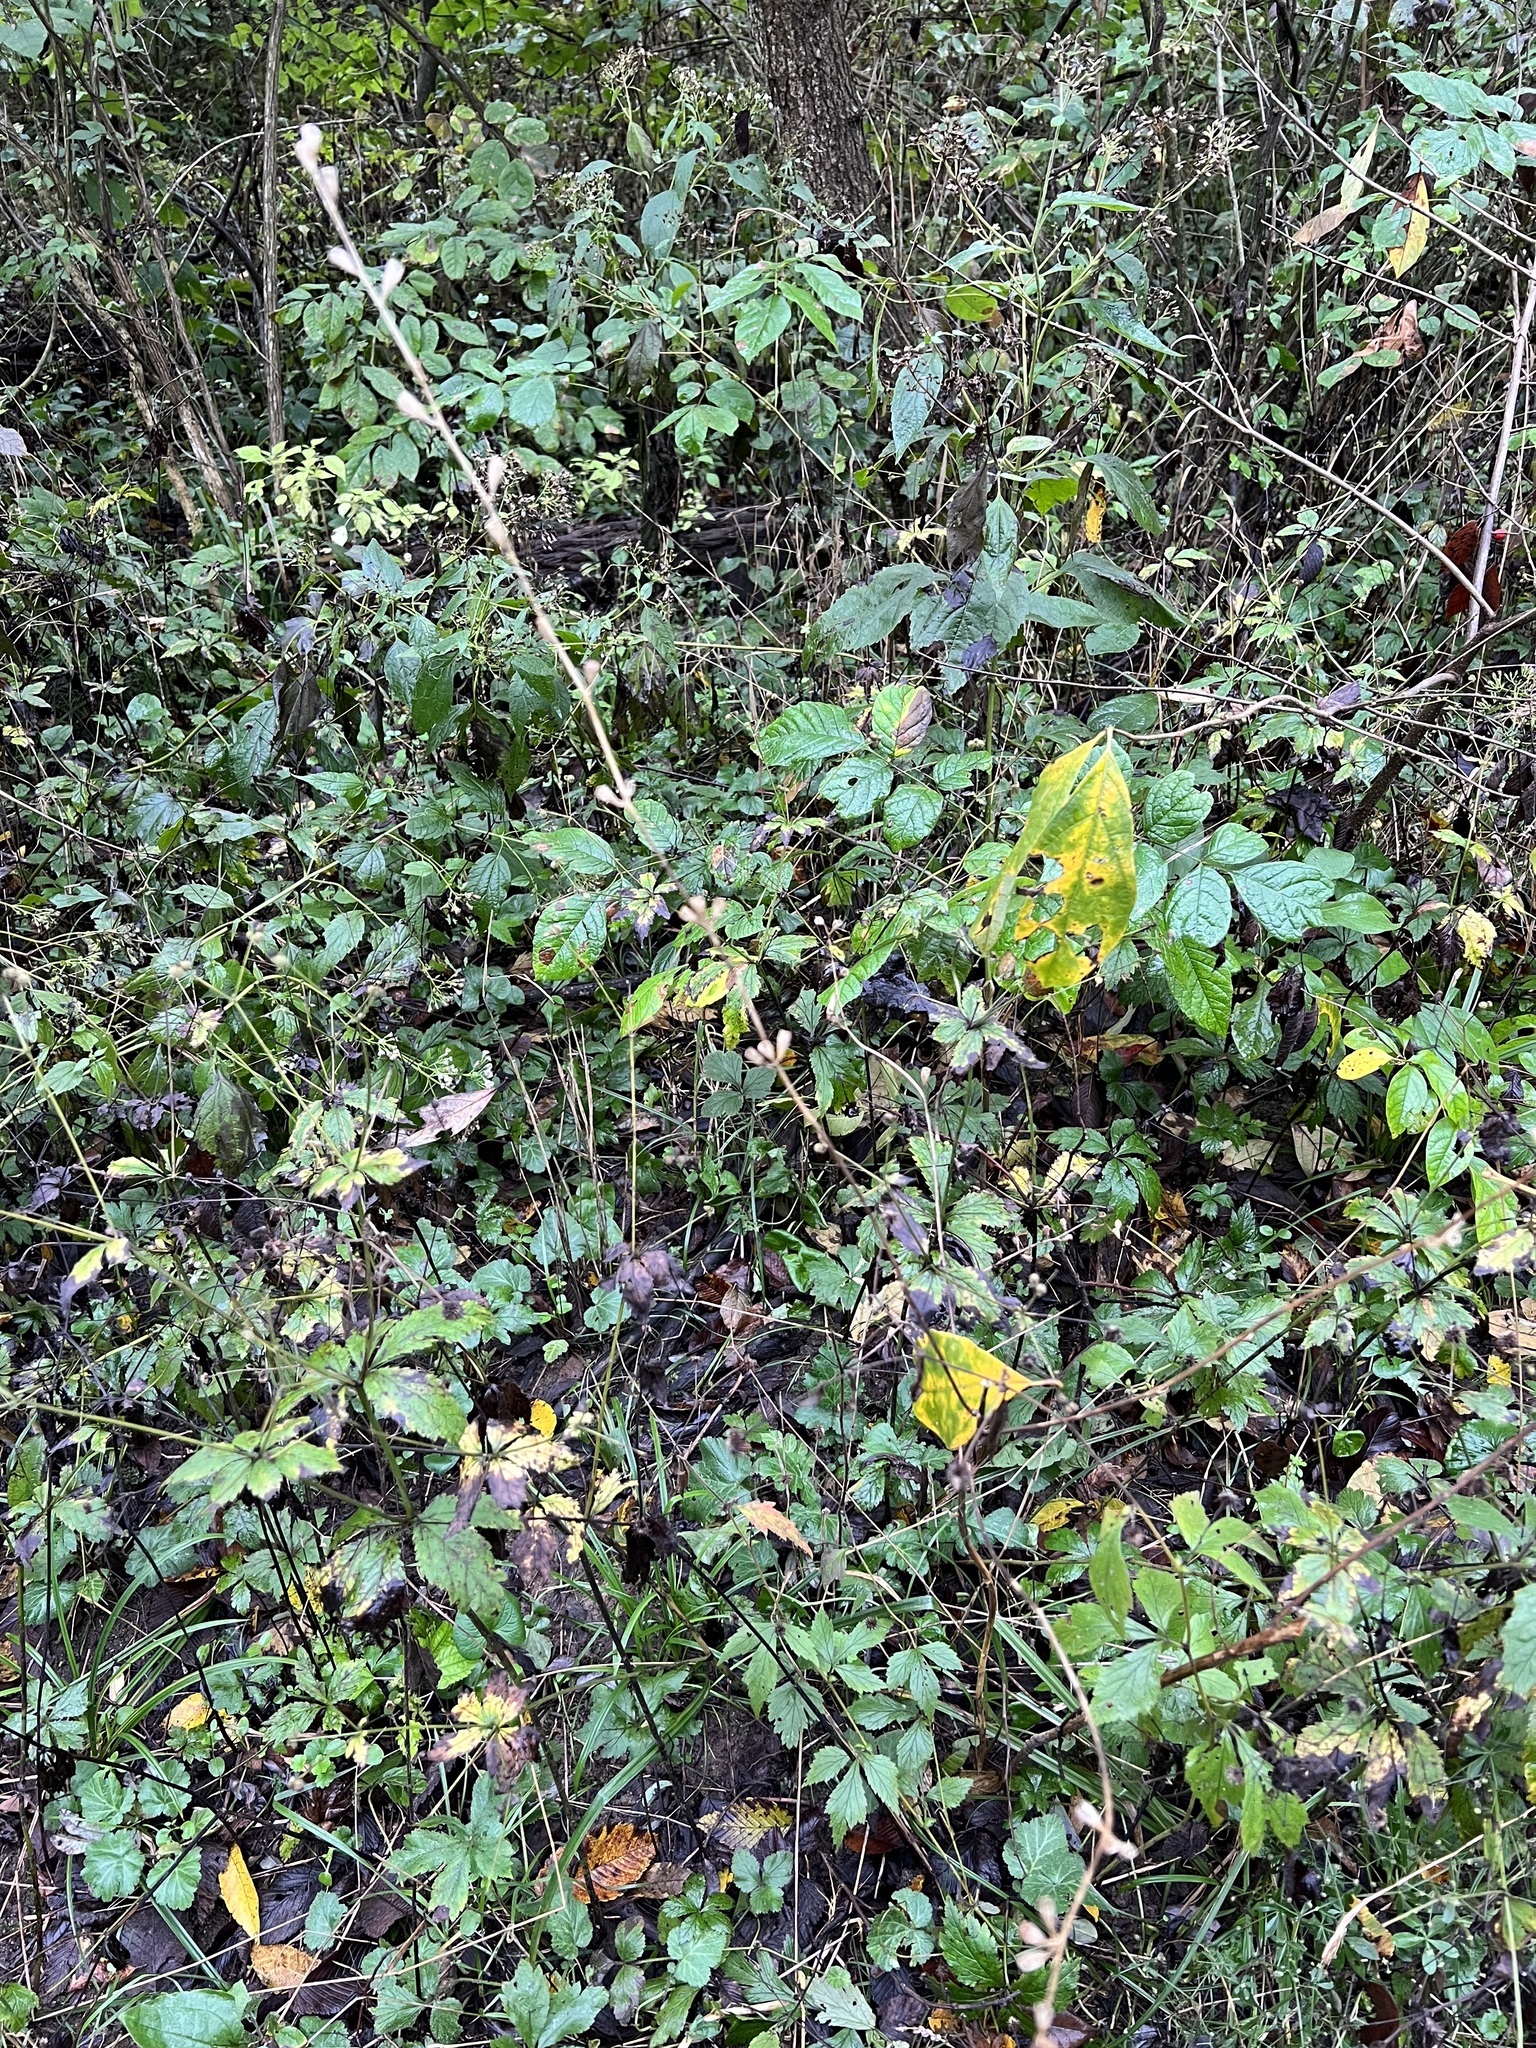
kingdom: Plantae
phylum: Tracheophyta
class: Magnoliopsida
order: Asterales
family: Campanulaceae
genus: Campanulastrum
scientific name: Campanulastrum americanum
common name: American bellflower
